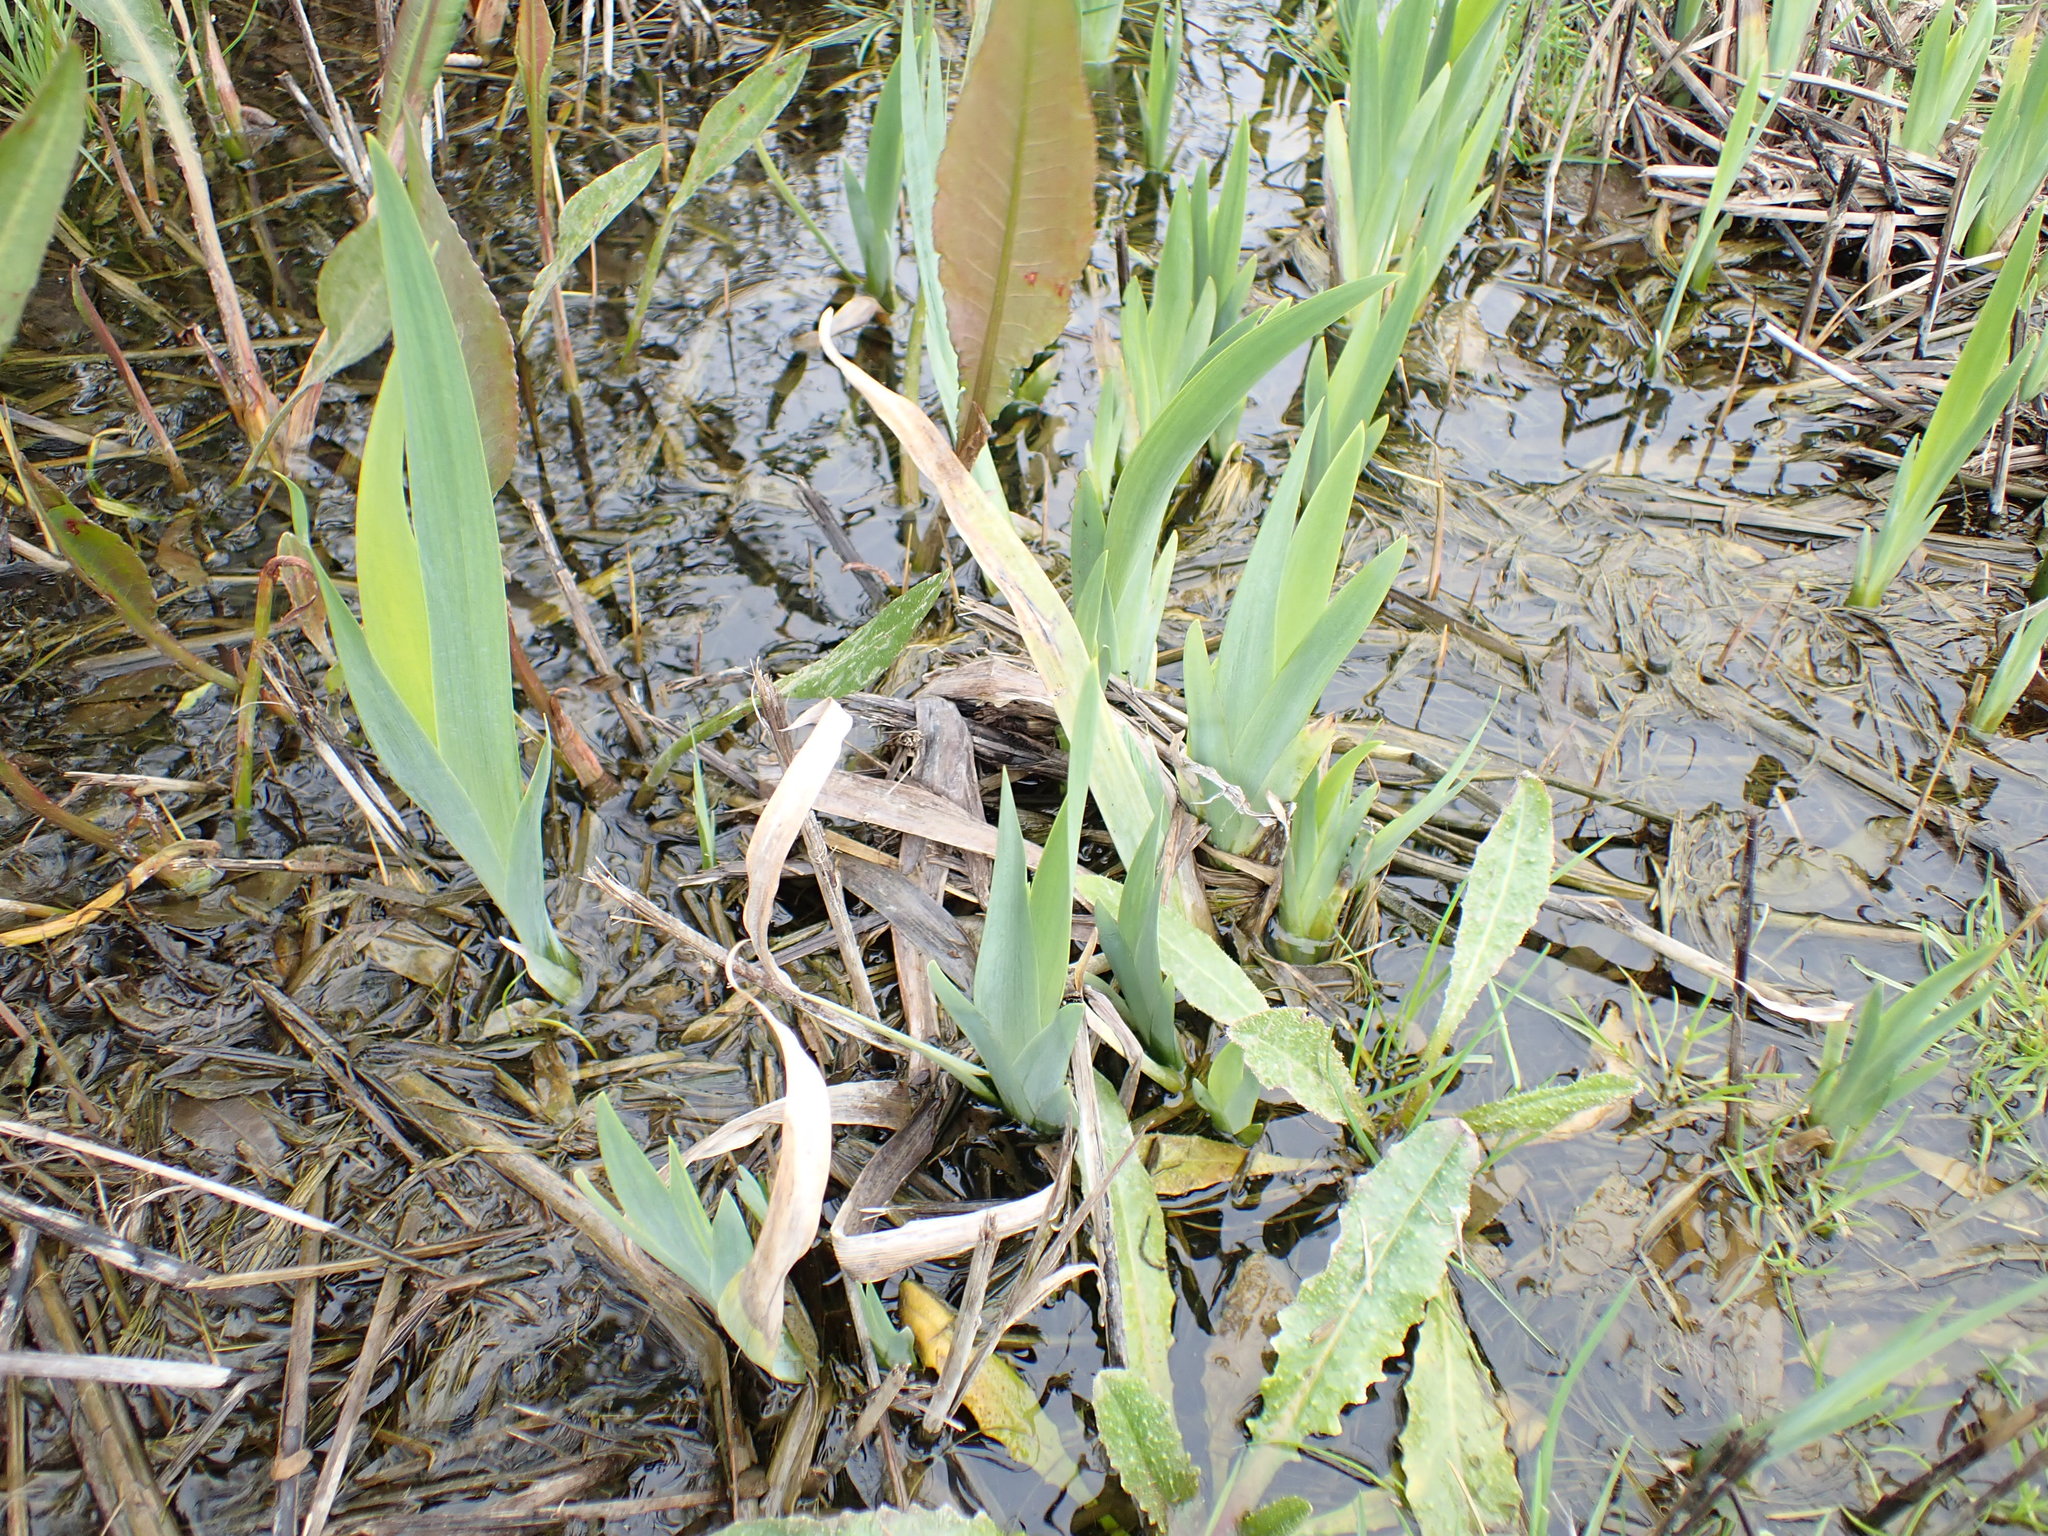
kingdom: Plantae
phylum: Tracheophyta
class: Liliopsida
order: Asparagales
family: Iridaceae
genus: Iris
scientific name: Iris pseudacorus
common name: Yellow flag
